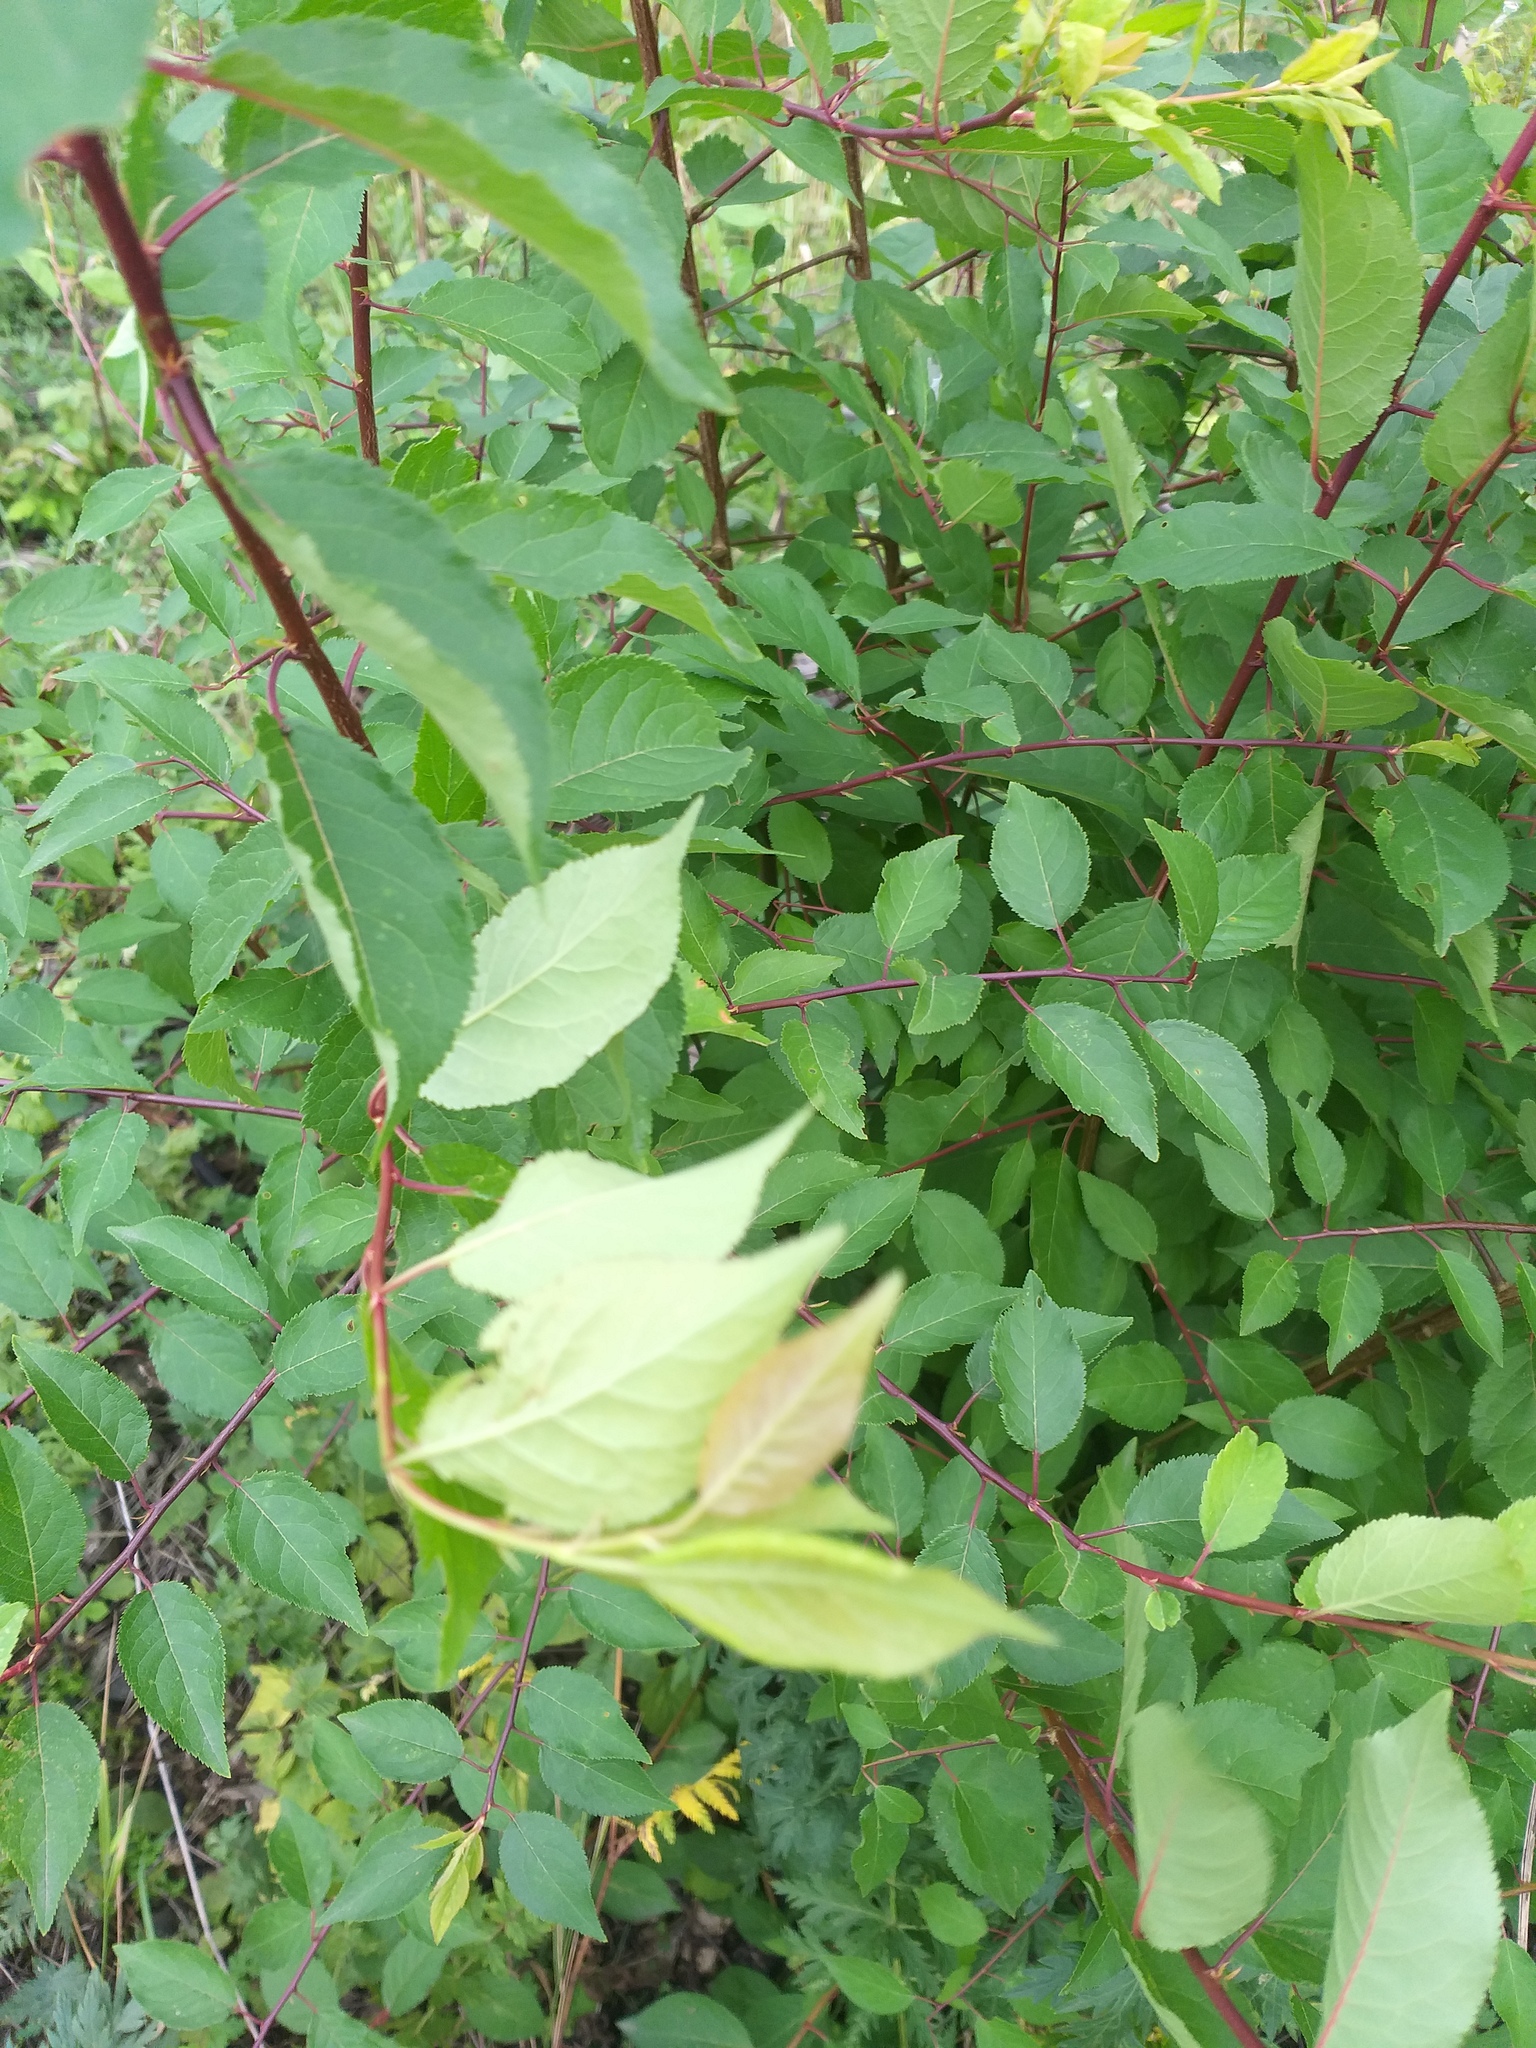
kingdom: Plantae
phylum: Tracheophyta
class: Magnoliopsida
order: Rosales
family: Rosaceae
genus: Prunus
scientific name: Prunus cerasifera
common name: Cherry plum
